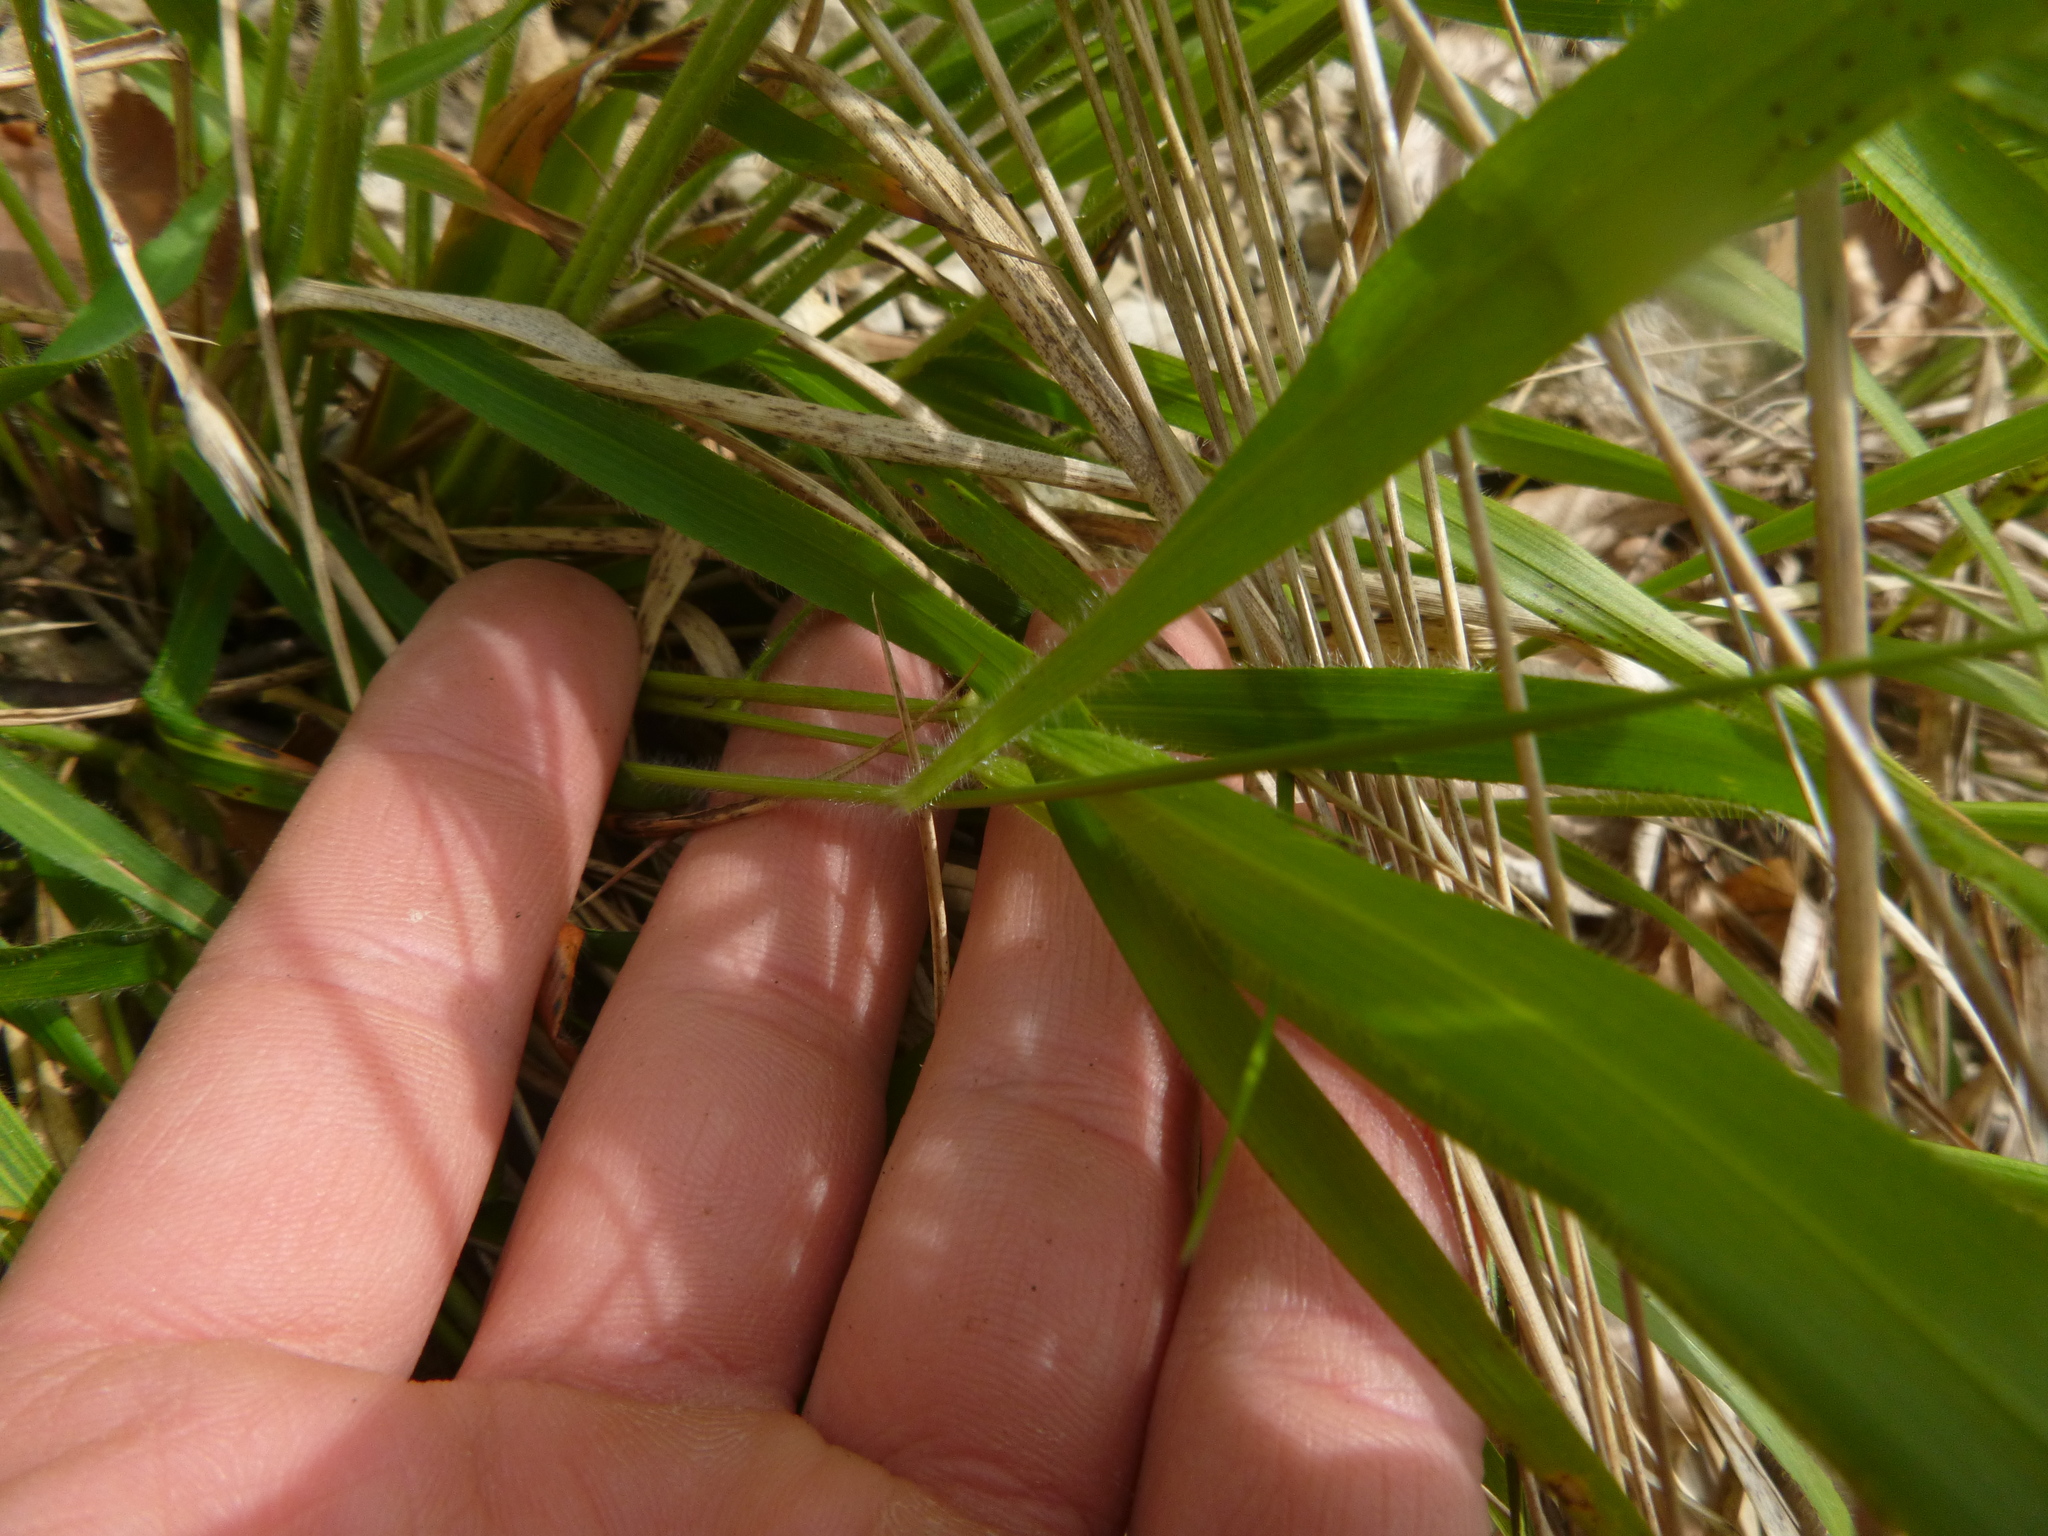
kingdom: Plantae
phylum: Tracheophyta
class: Liliopsida
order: Poales
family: Poaceae
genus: Brachypodium
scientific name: Brachypodium sylvaticum
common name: False-brome
